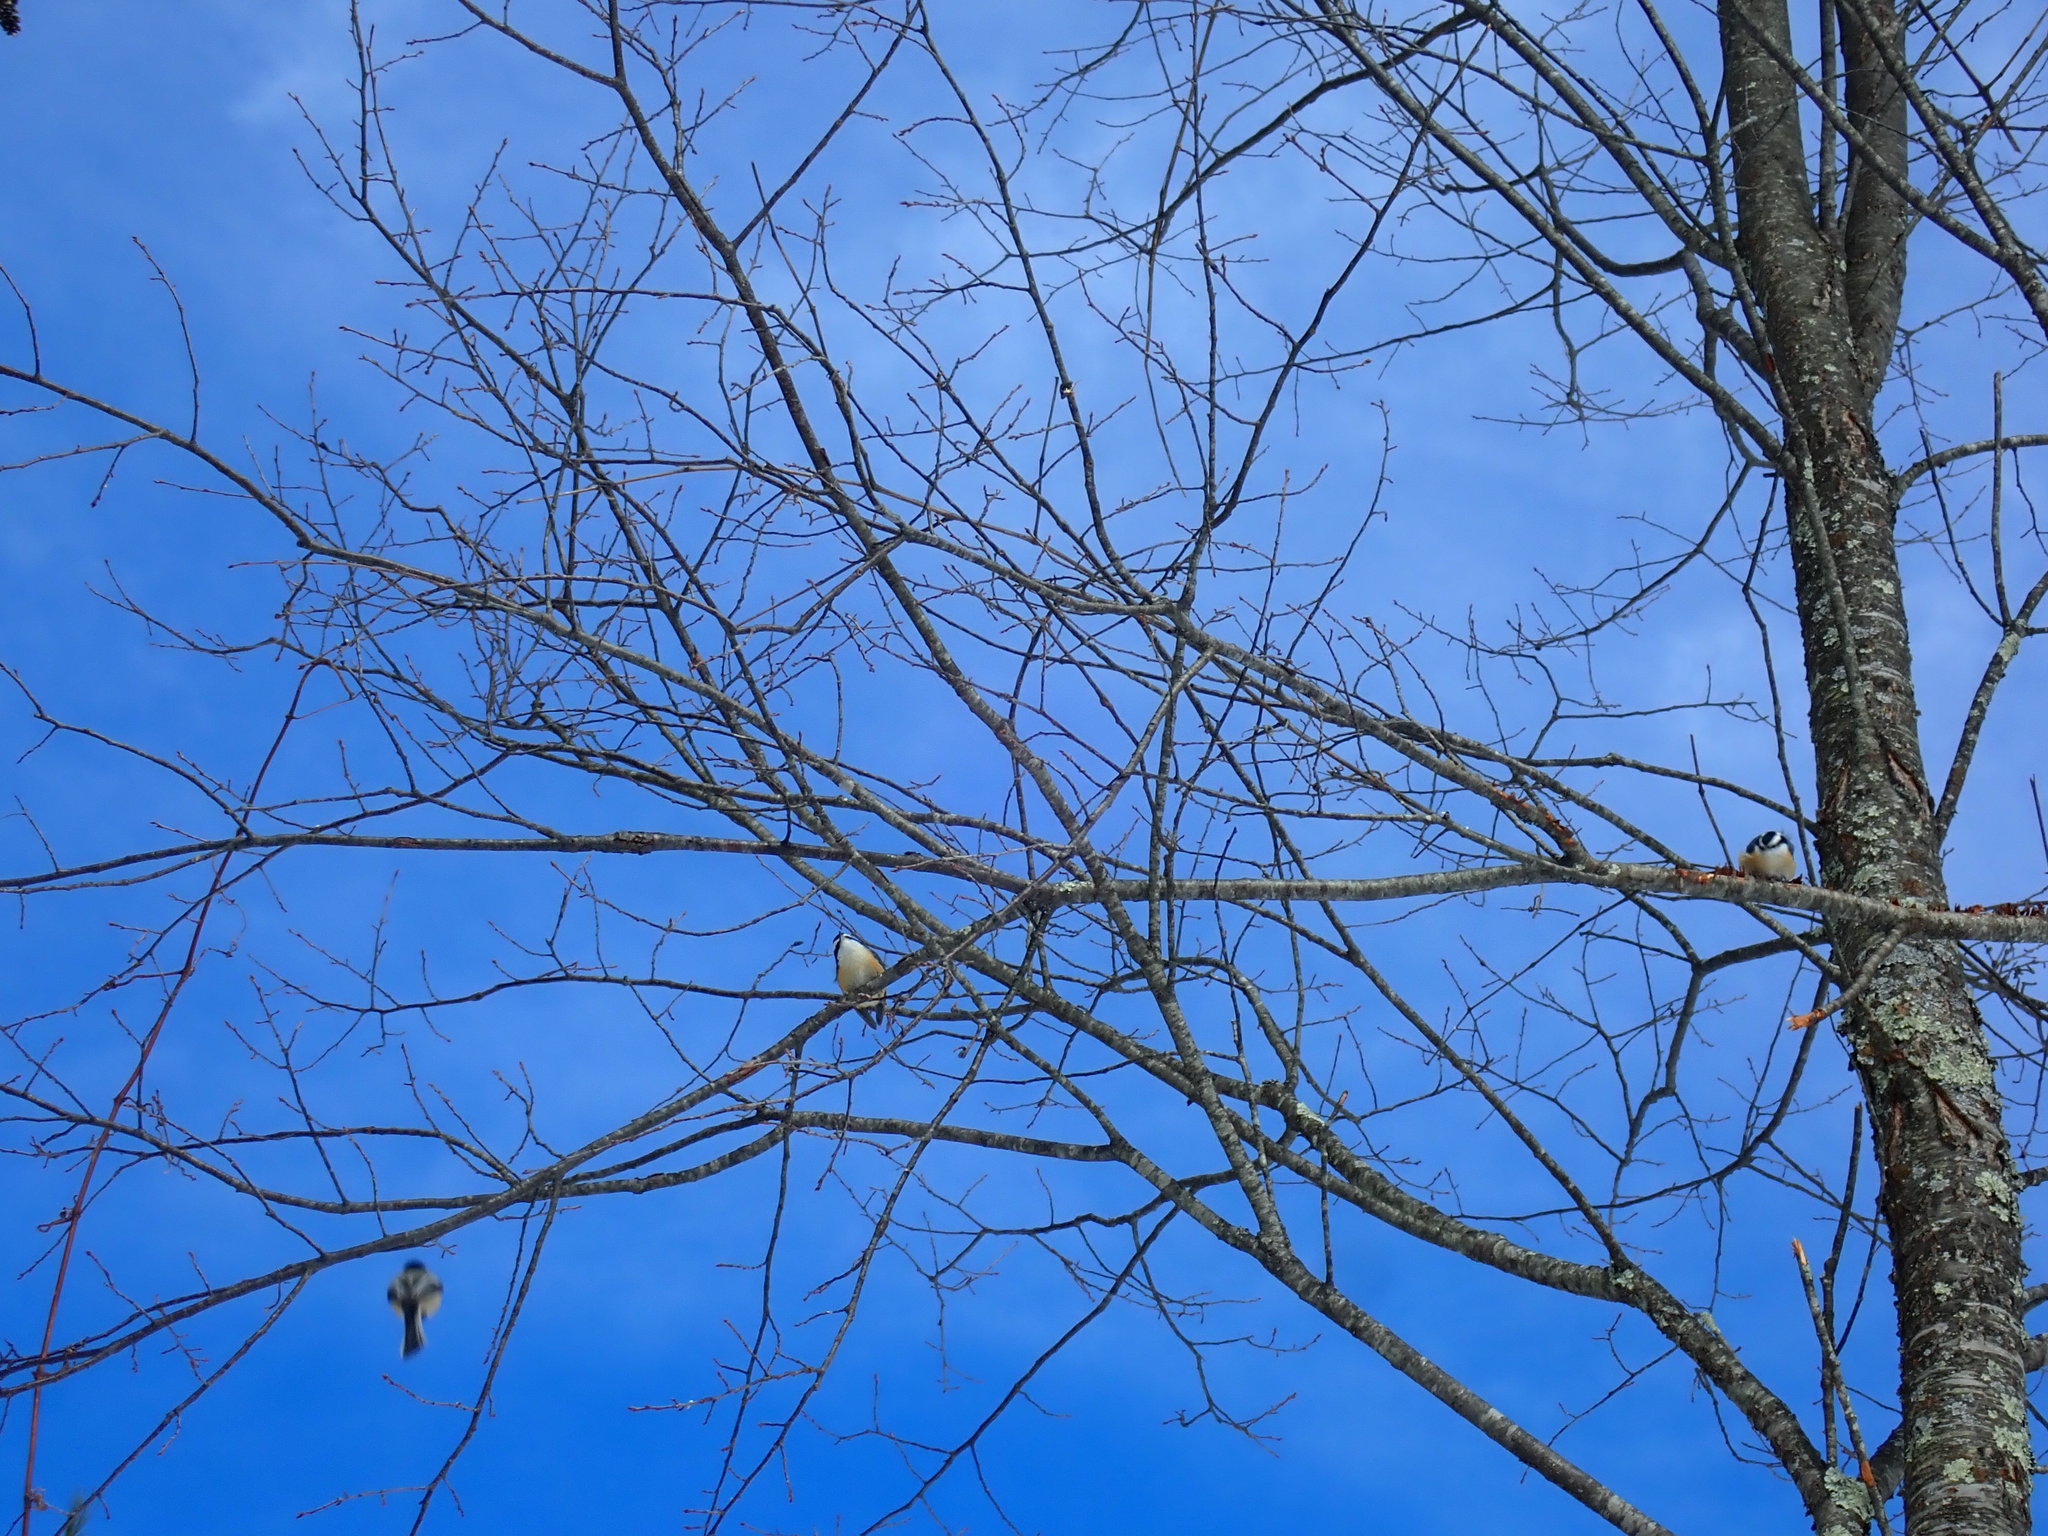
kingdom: Animalia
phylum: Chordata
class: Aves
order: Passeriformes
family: Sittidae
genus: Sitta
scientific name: Sitta canadensis
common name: Red-breasted nuthatch
